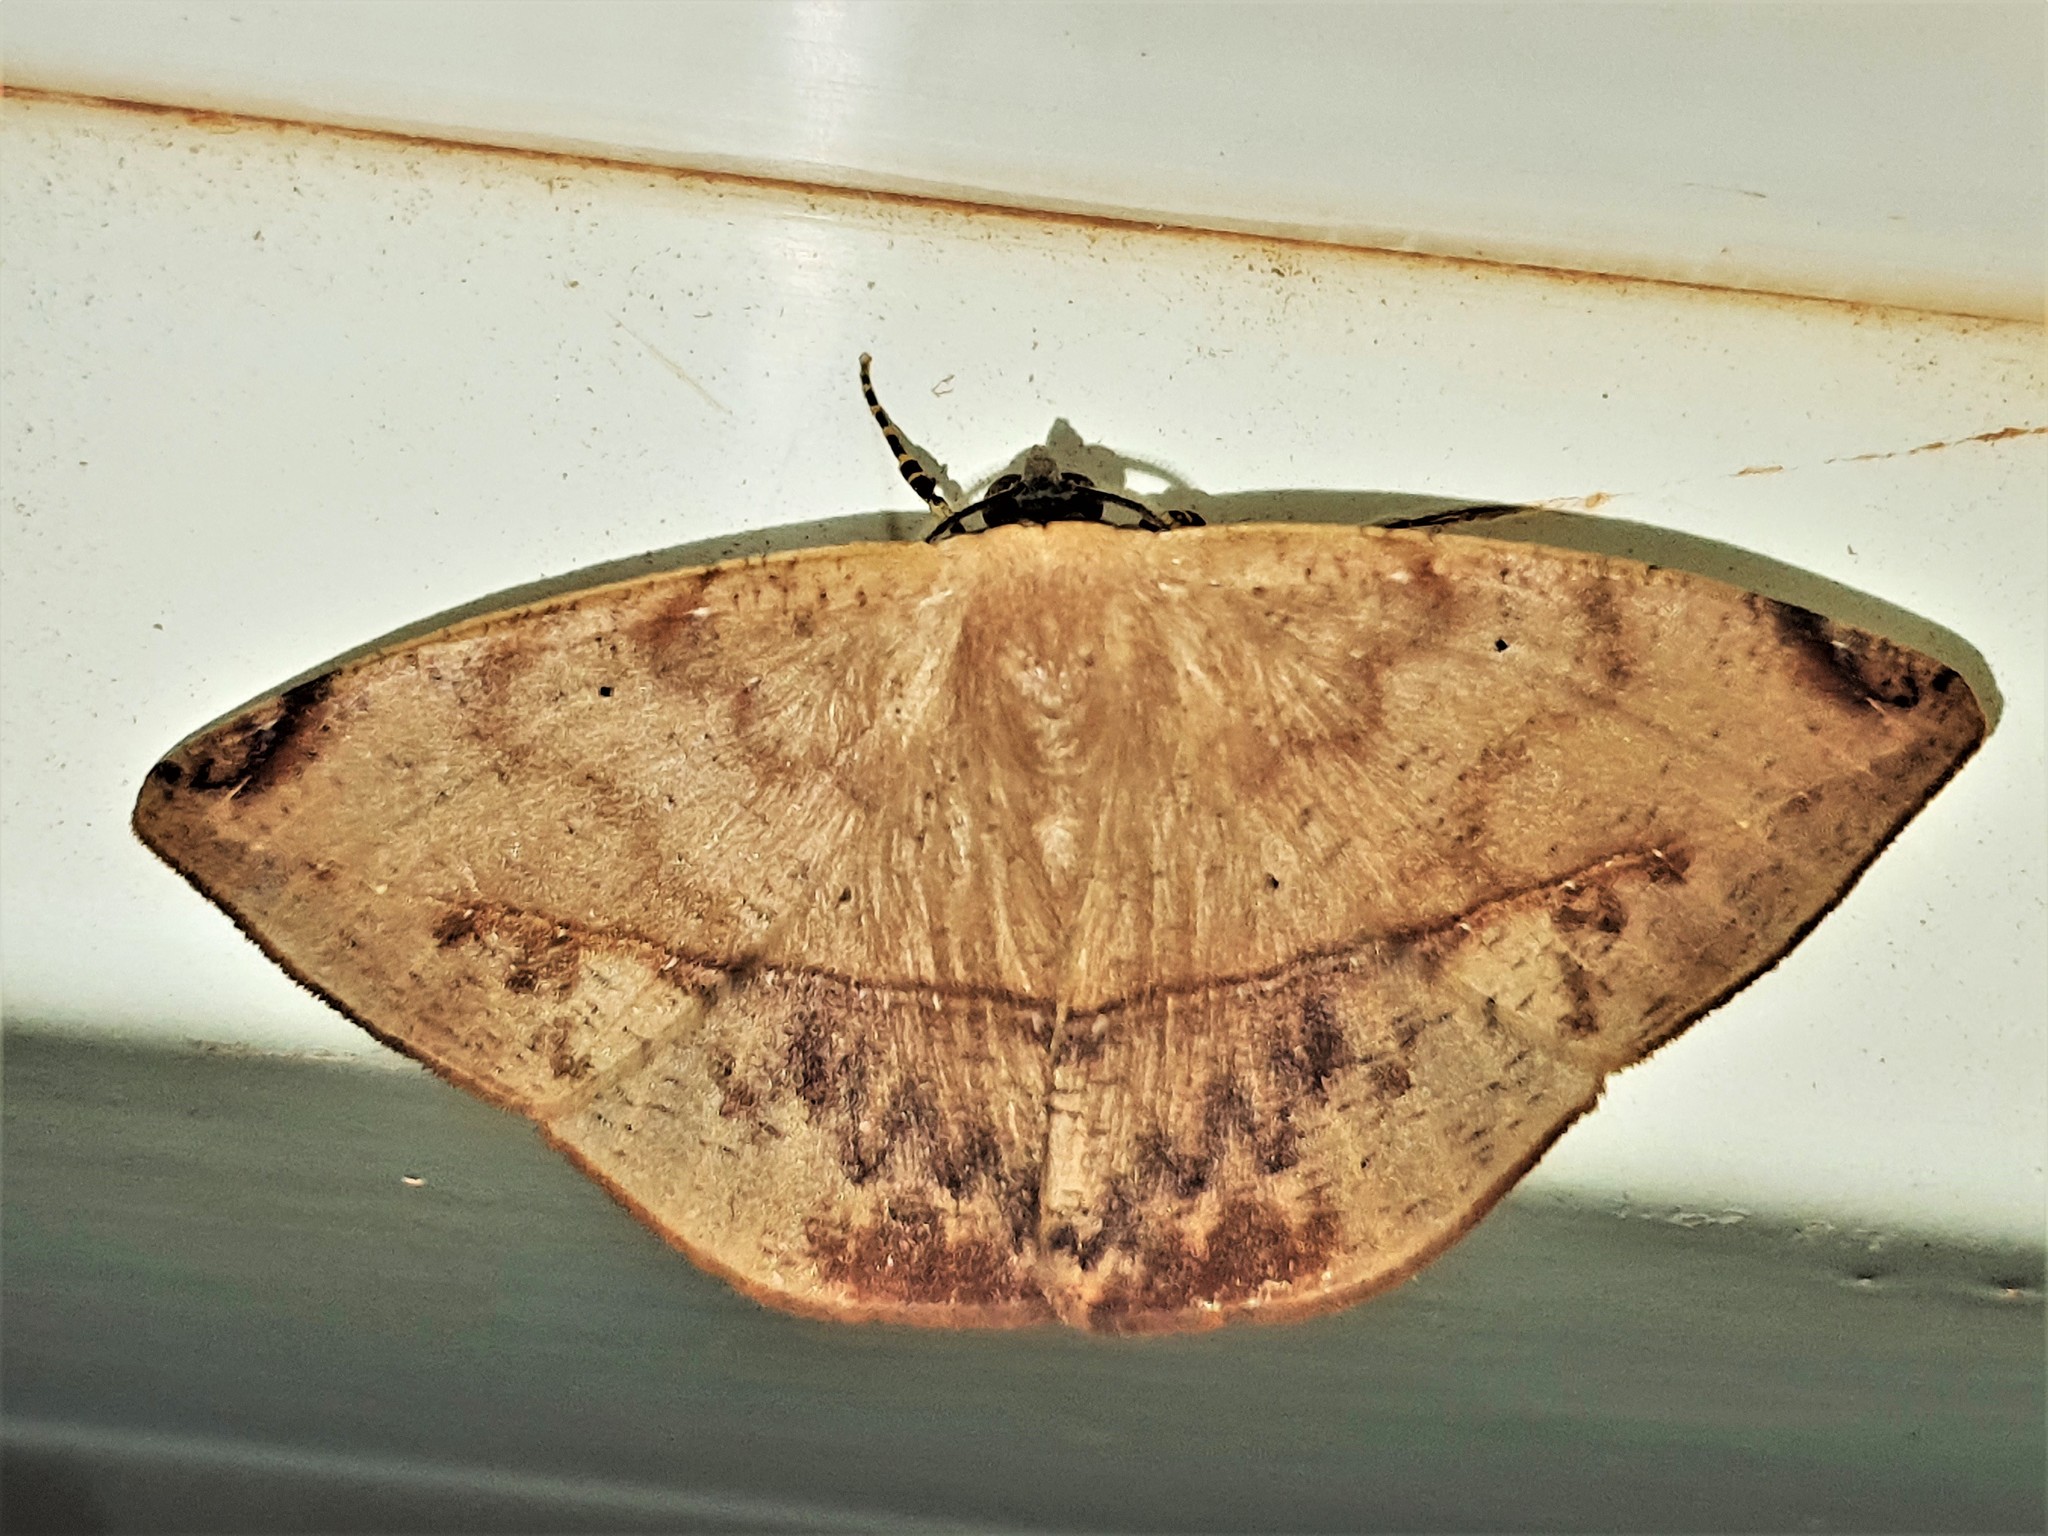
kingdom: Animalia
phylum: Arthropoda
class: Insecta
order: Lepidoptera
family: Geometridae
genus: Herbita
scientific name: Herbita lilacina
